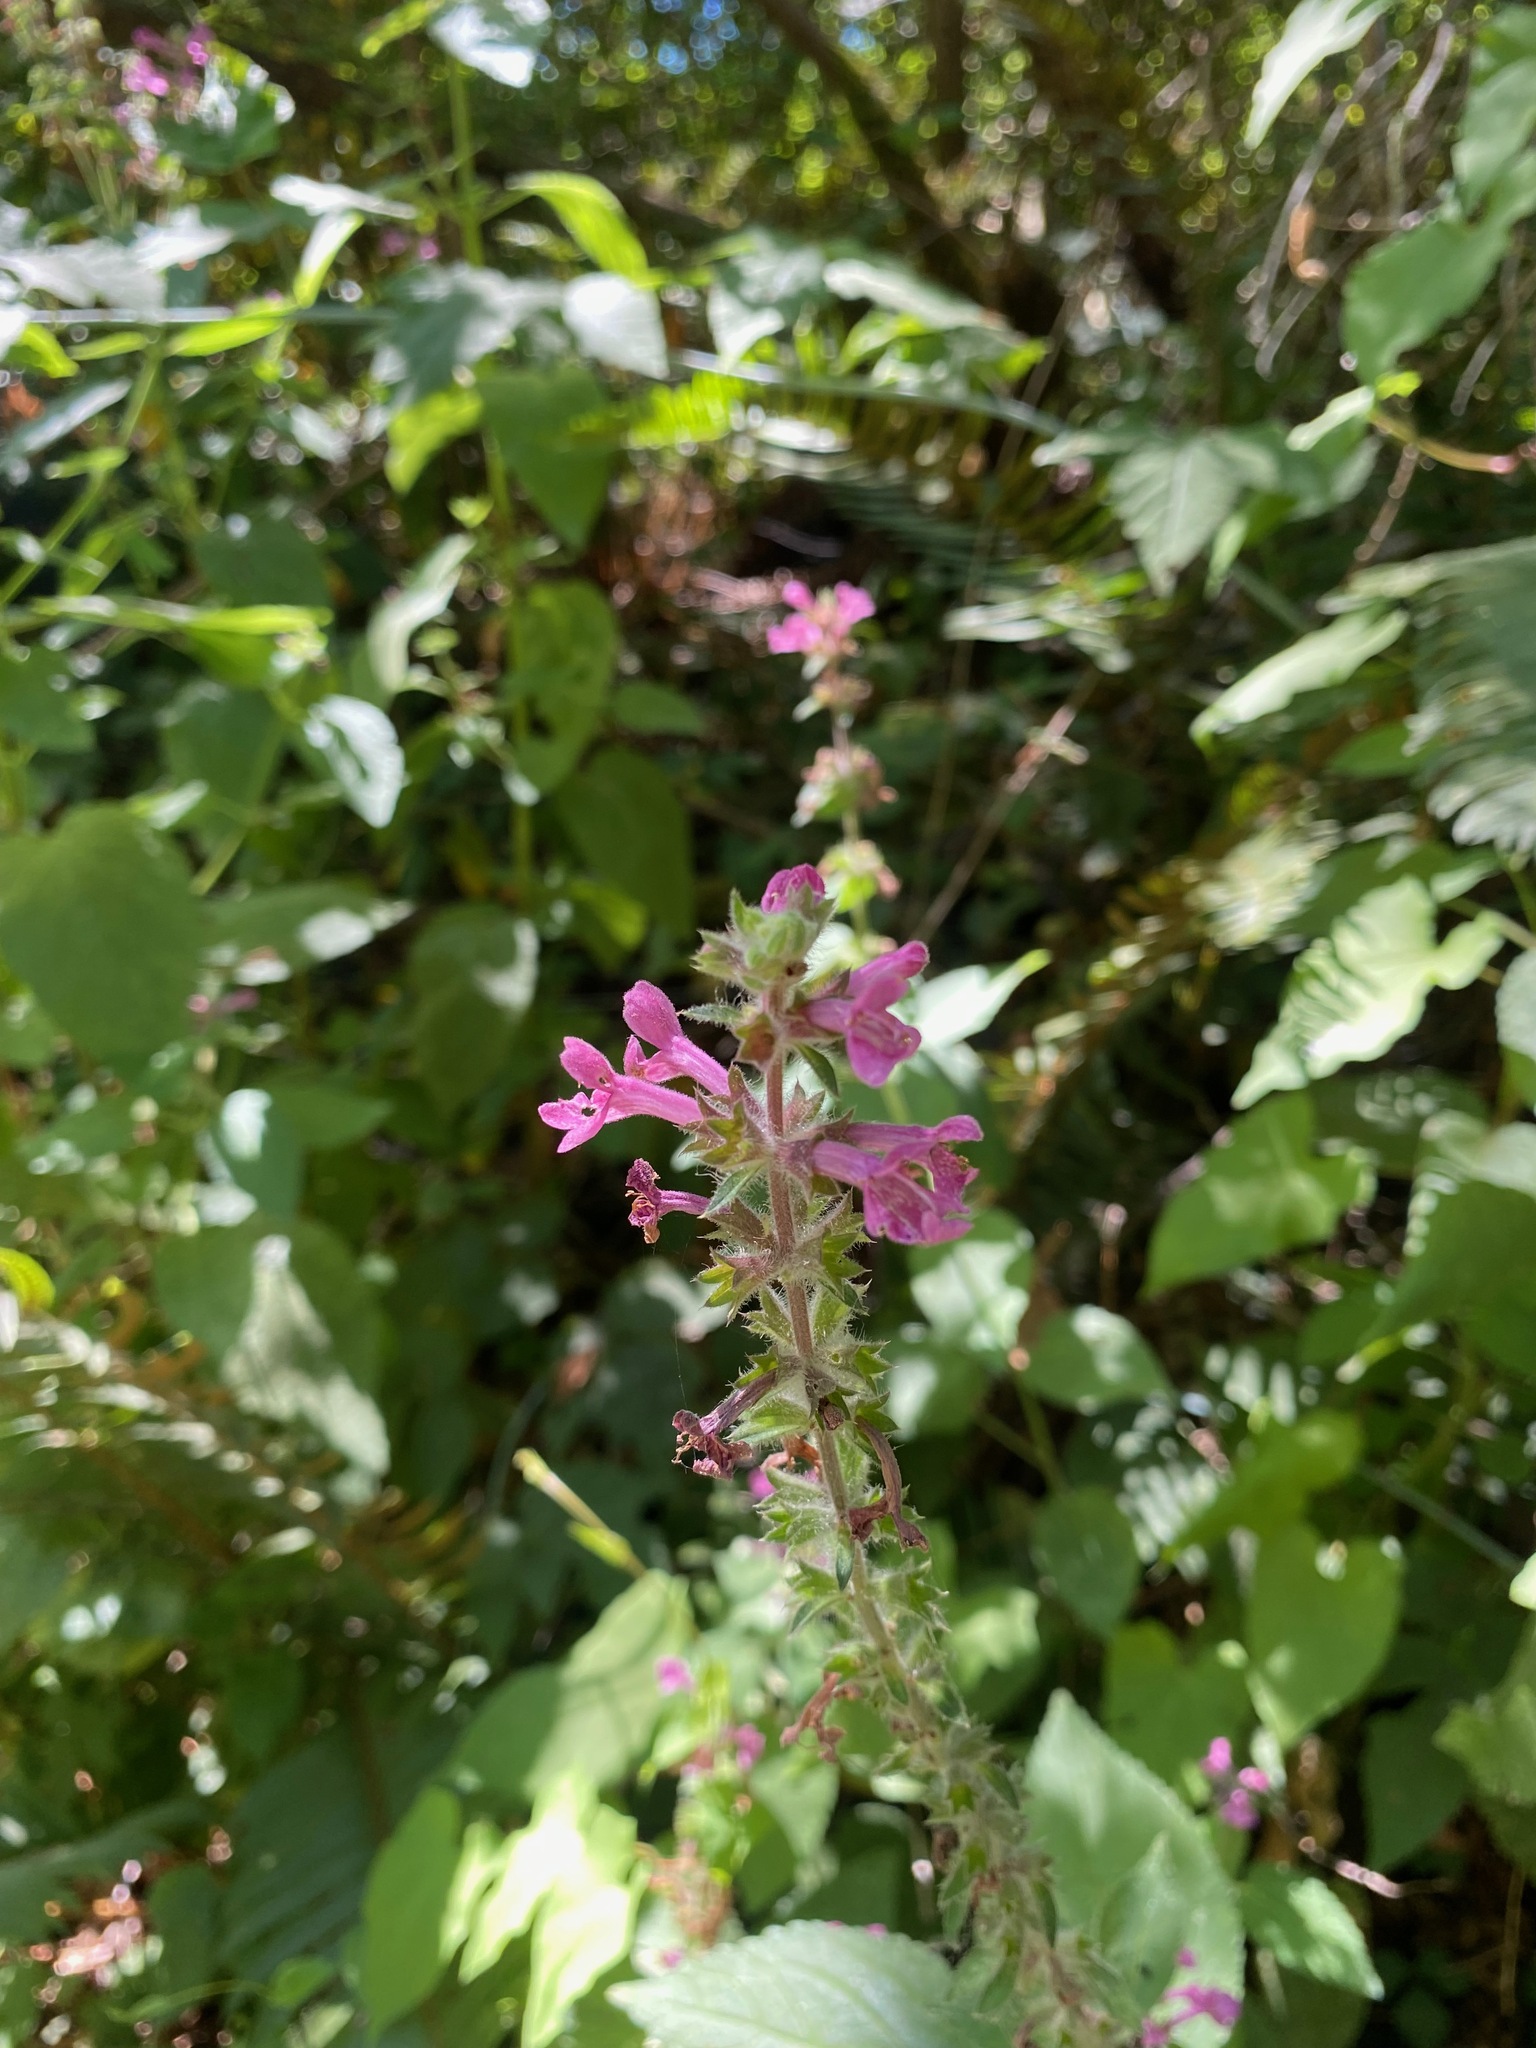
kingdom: Plantae
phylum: Tracheophyta
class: Magnoliopsida
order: Lamiales
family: Lamiaceae
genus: Stachys
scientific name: Stachys chamissonis
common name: Coastal hedge-nettle
